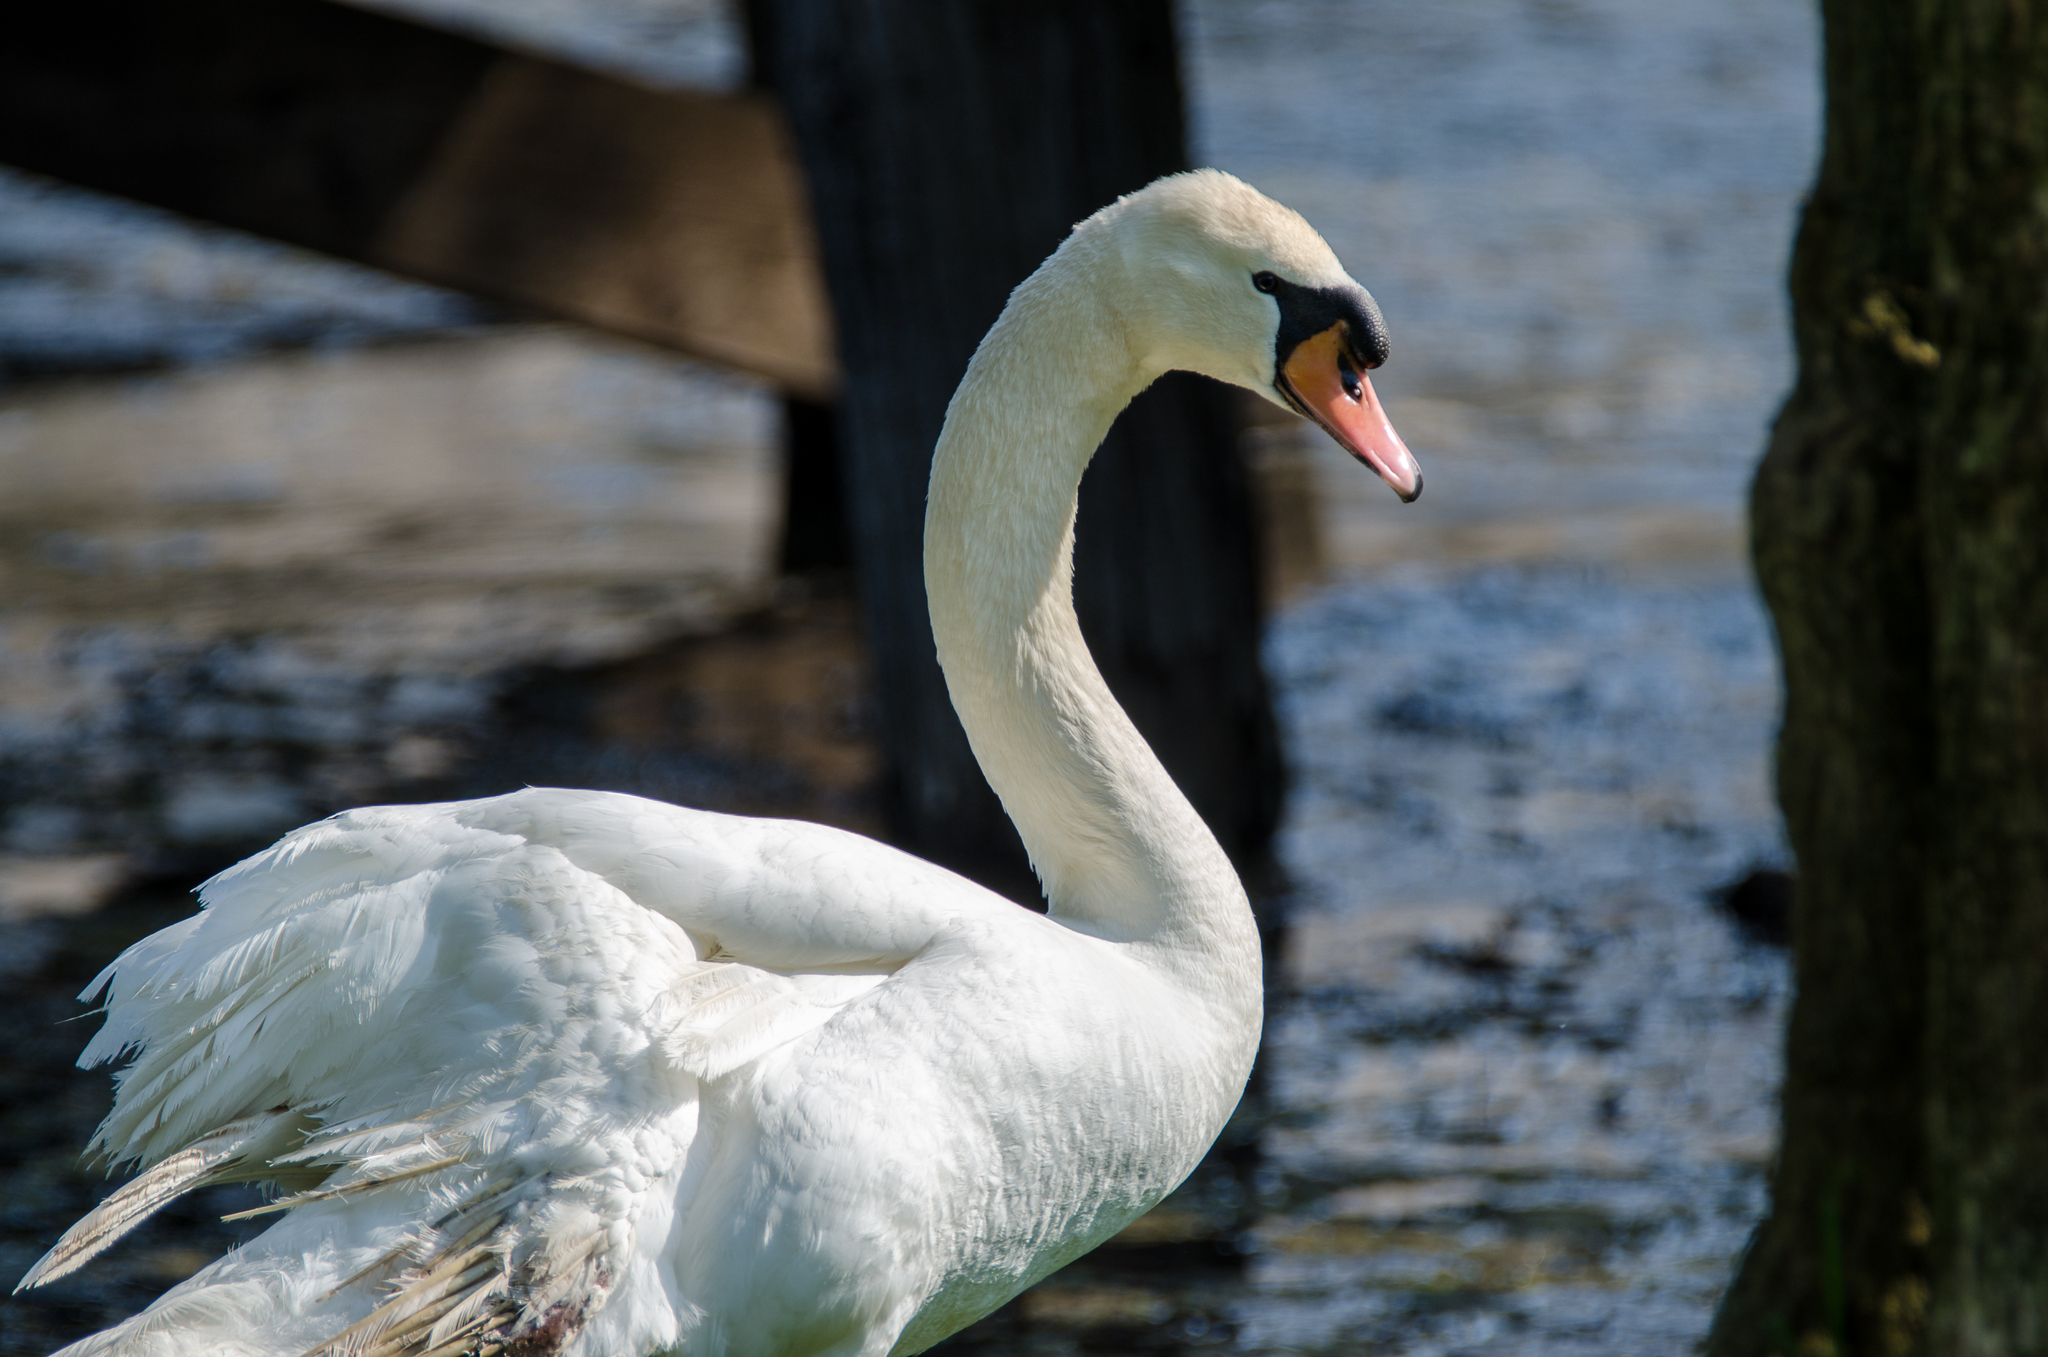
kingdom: Animalia
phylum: Chordata
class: Aves
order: Anseriformes
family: Anatidae
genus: Cygnus
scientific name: Cygnus olor
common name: Mute swan
